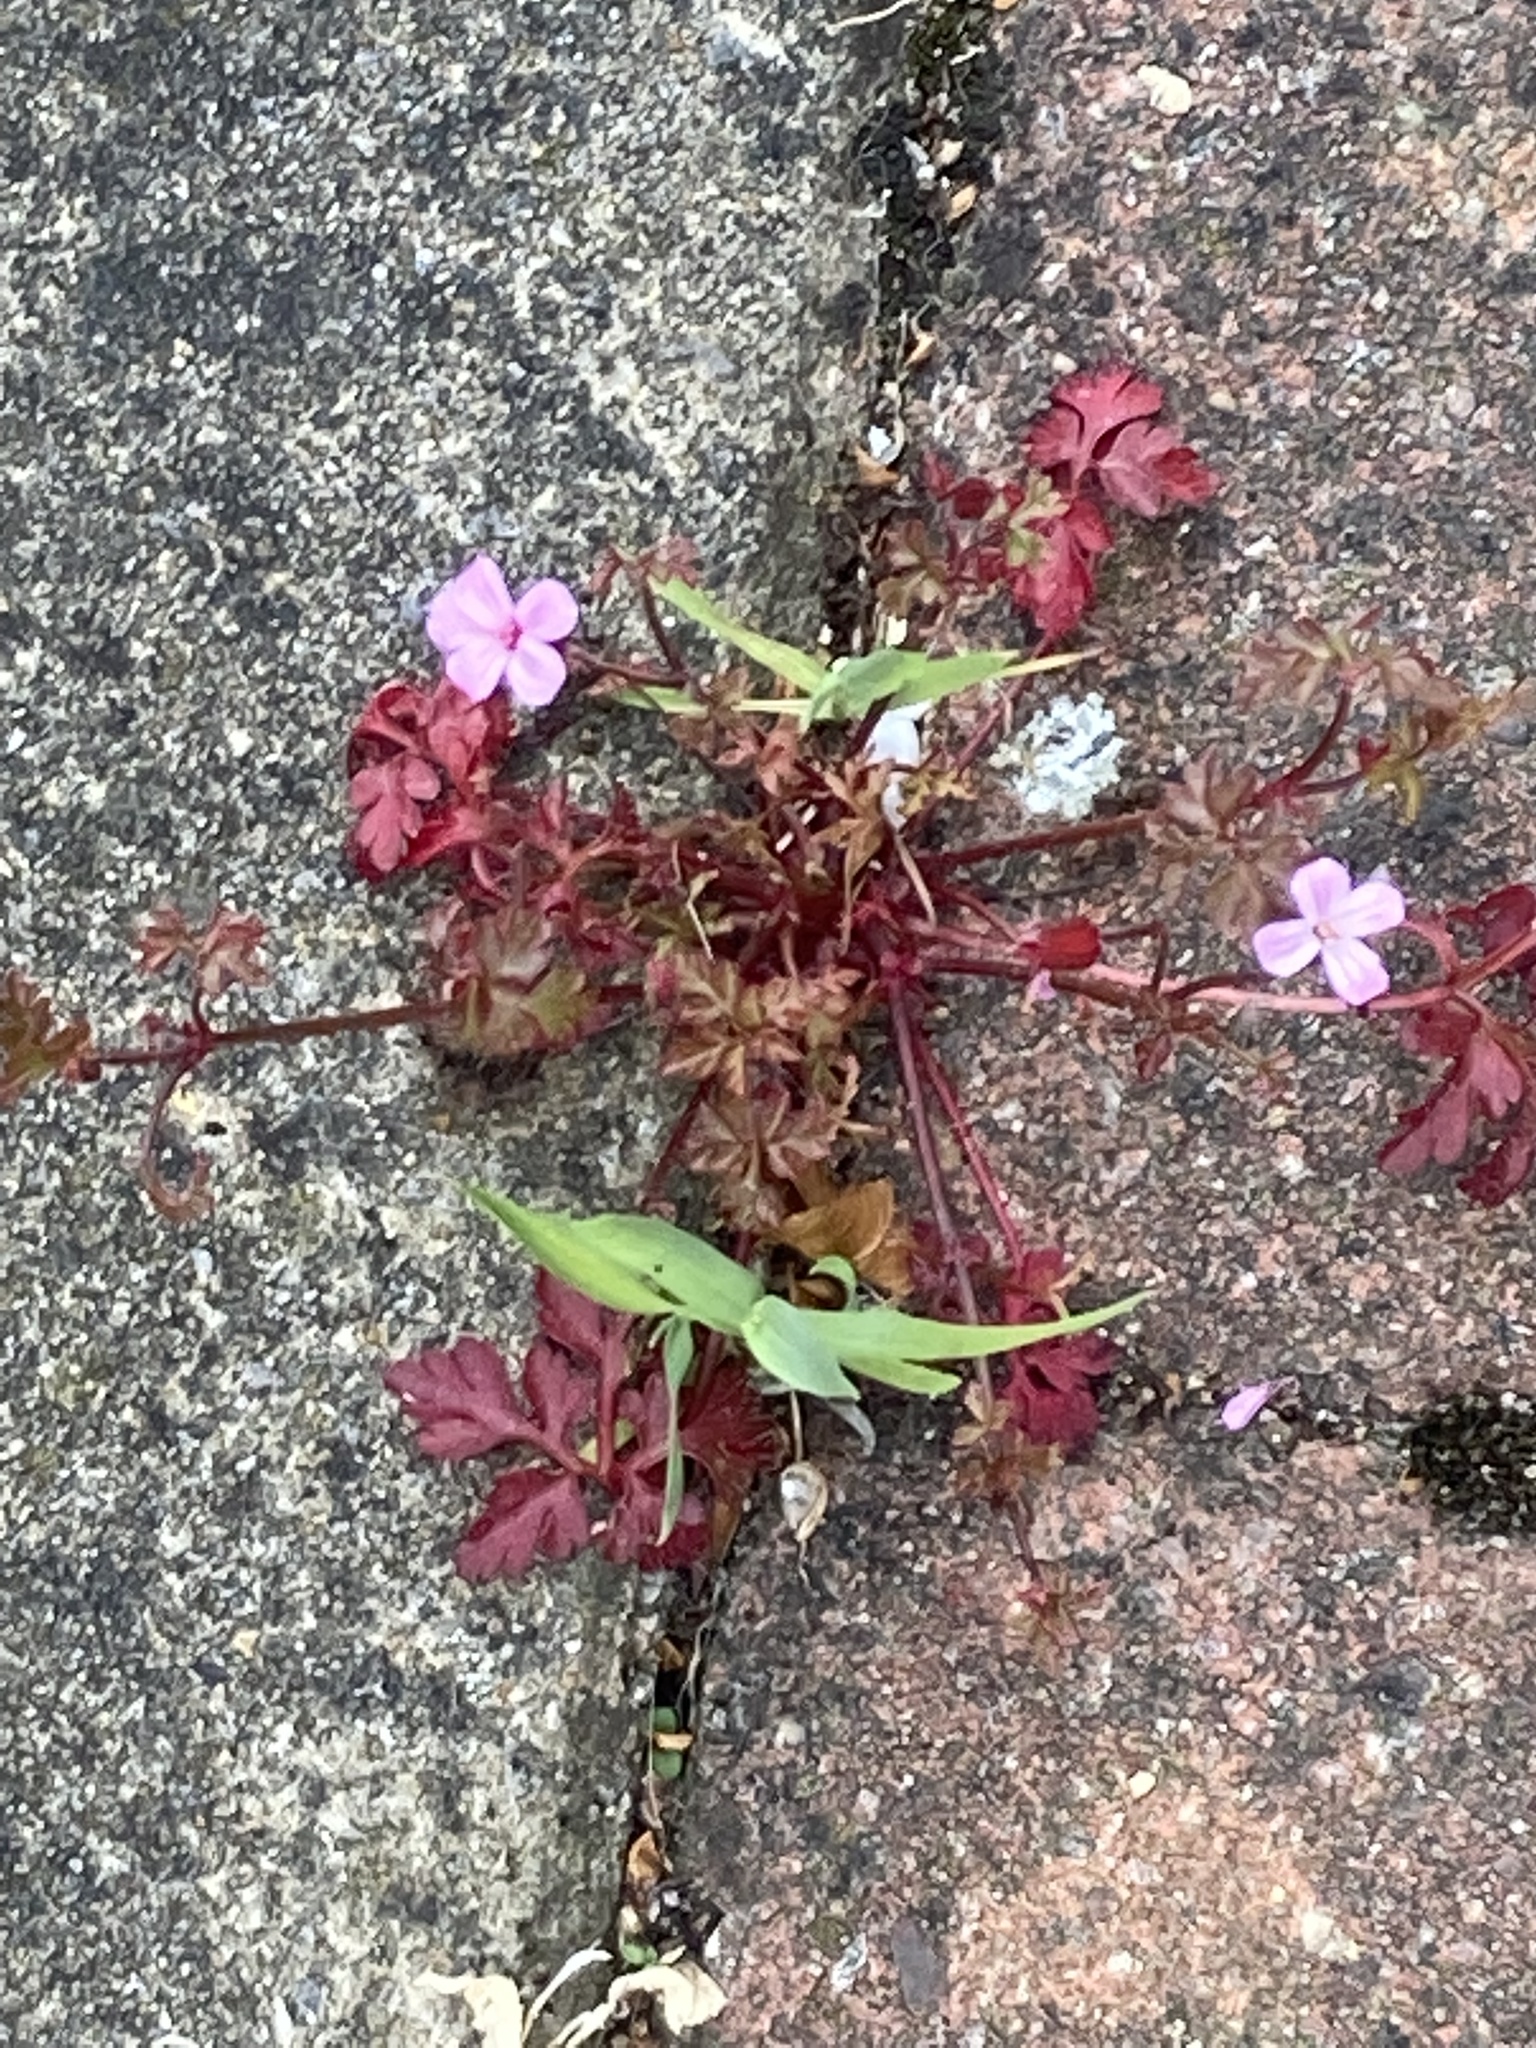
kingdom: Plantae
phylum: Tracheophyta
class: Magnoliopsida
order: Geraniales
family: Geraniaceae
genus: Geranium
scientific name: Geranium robertianum
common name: Herb-robert
